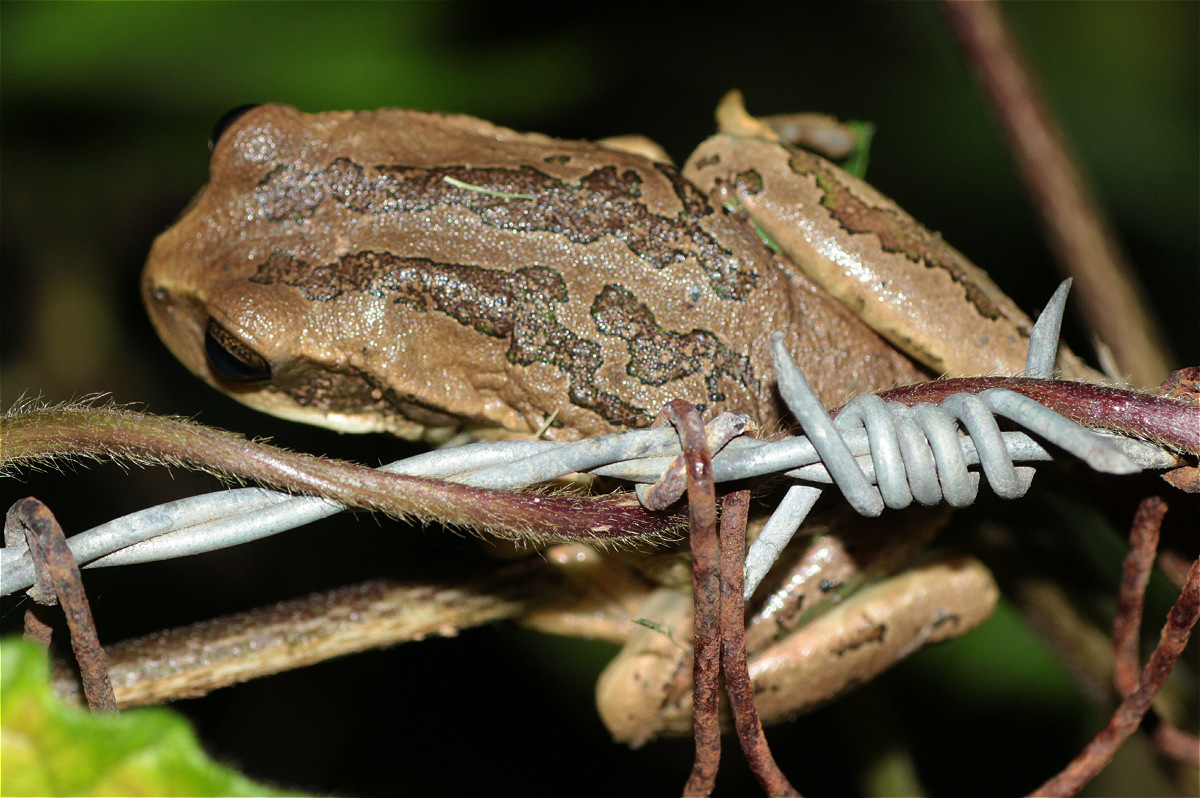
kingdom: Animalia
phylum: Chordata
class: Amphibia
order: Anura
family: Hemiphractidae
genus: Gastrotheca
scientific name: Gastrotheca cuencana
